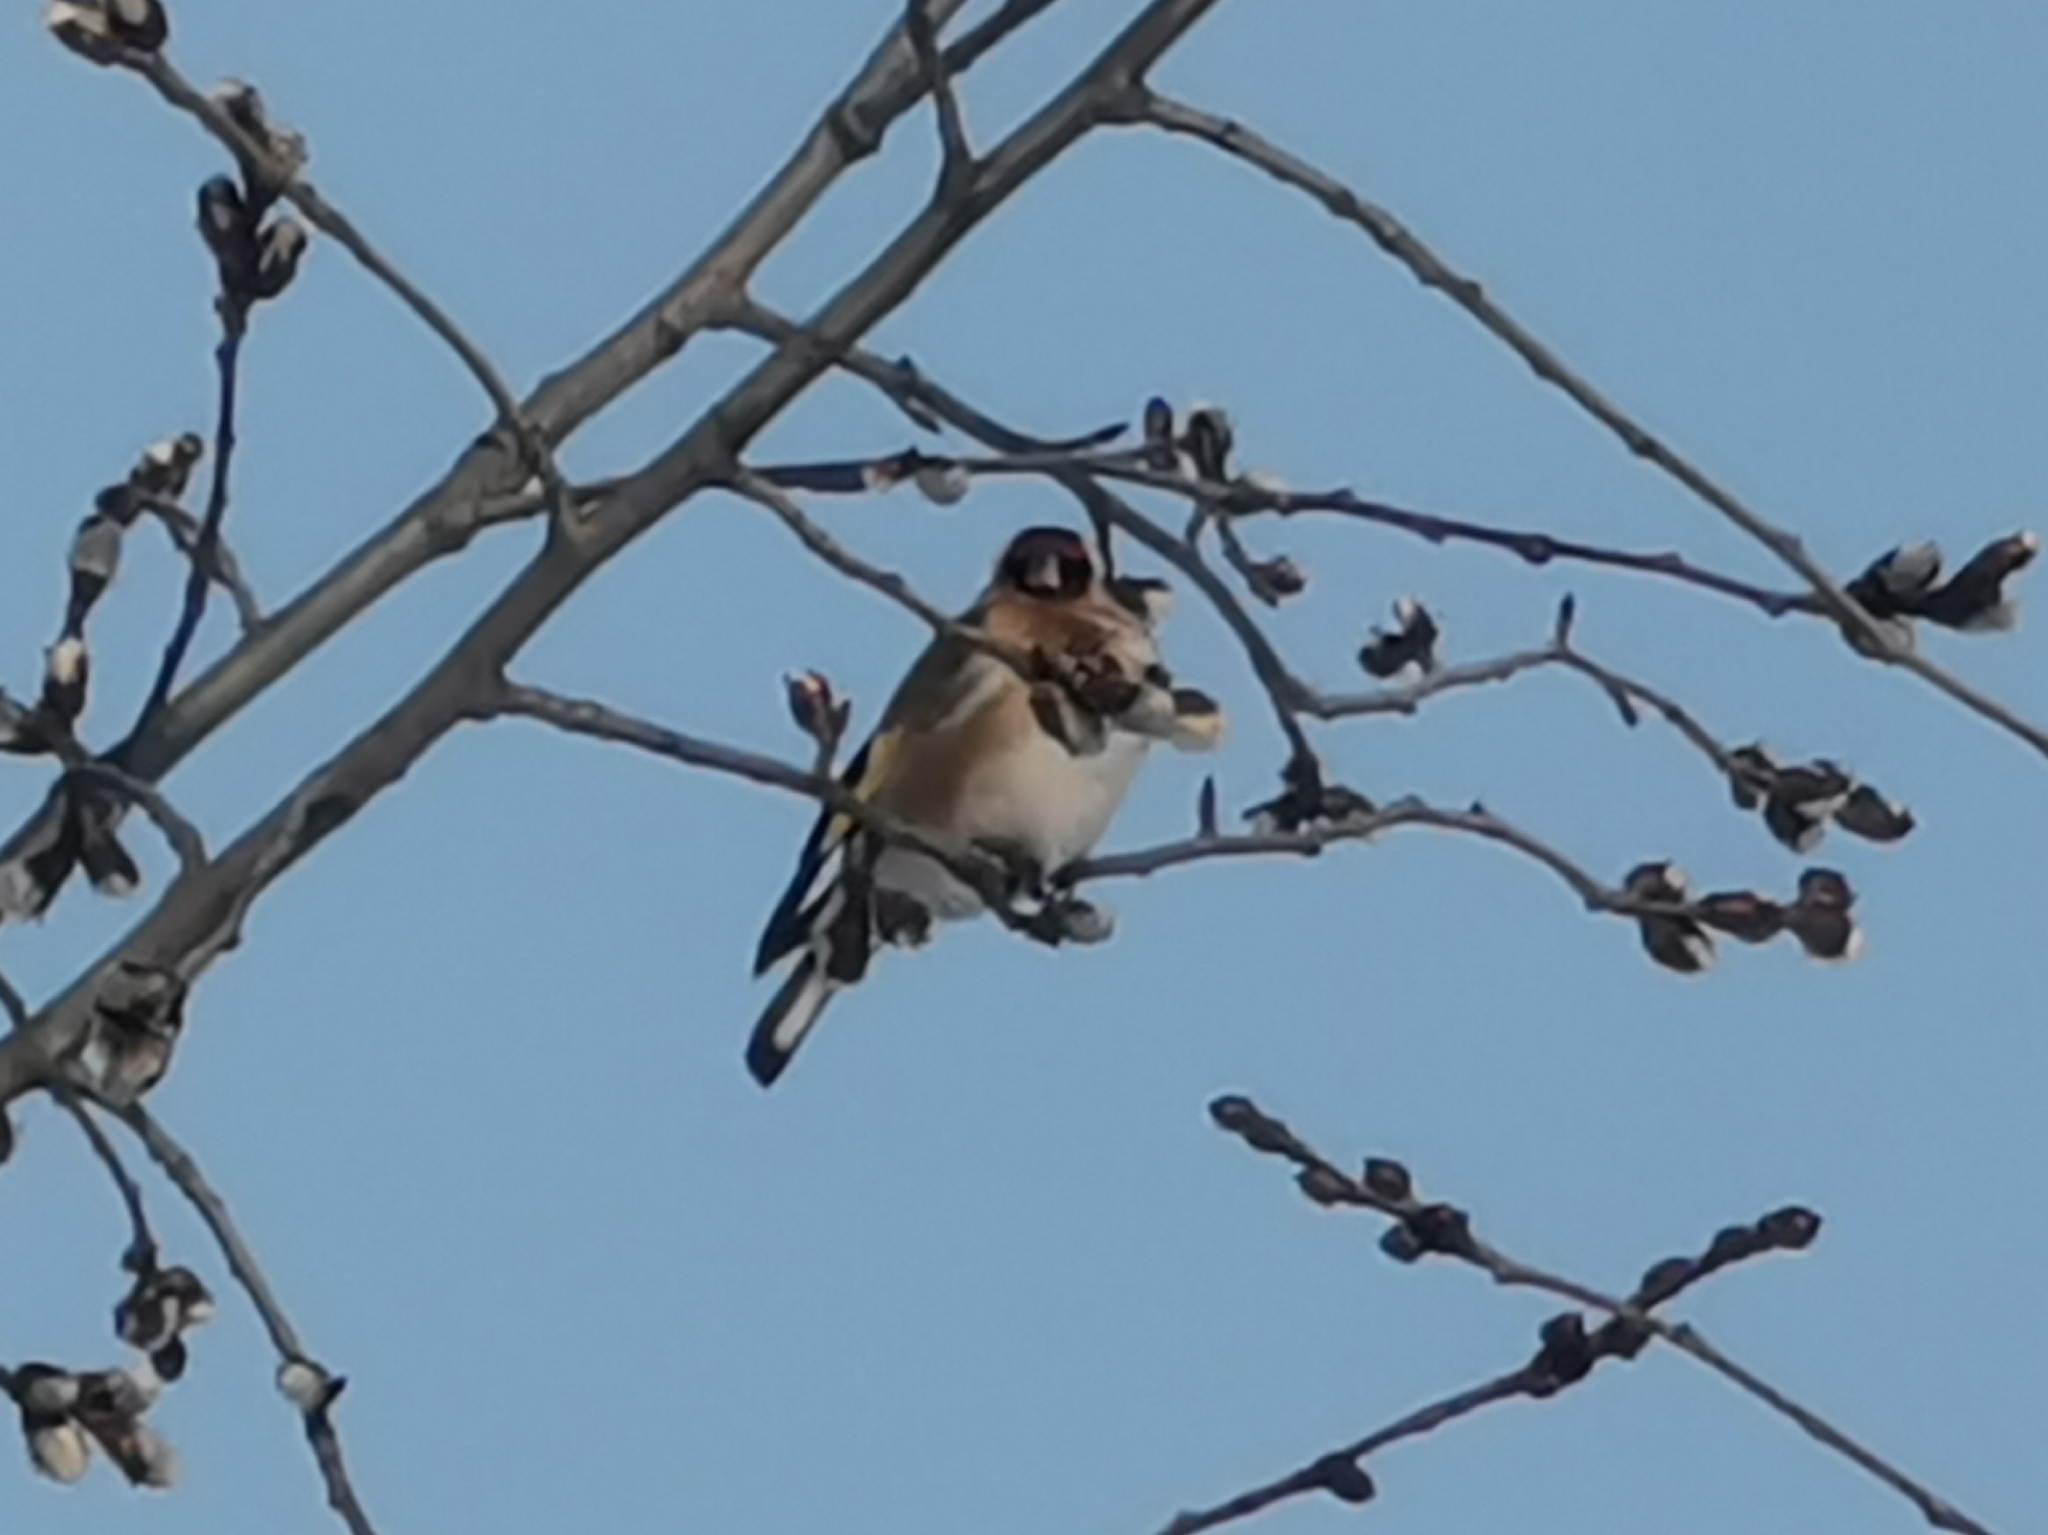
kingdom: Animalia
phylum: Chordata
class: Aves
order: Passeriformes
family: Fringillidae
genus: Carduelis
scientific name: Carduelis carduelis
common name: European goldfinch
